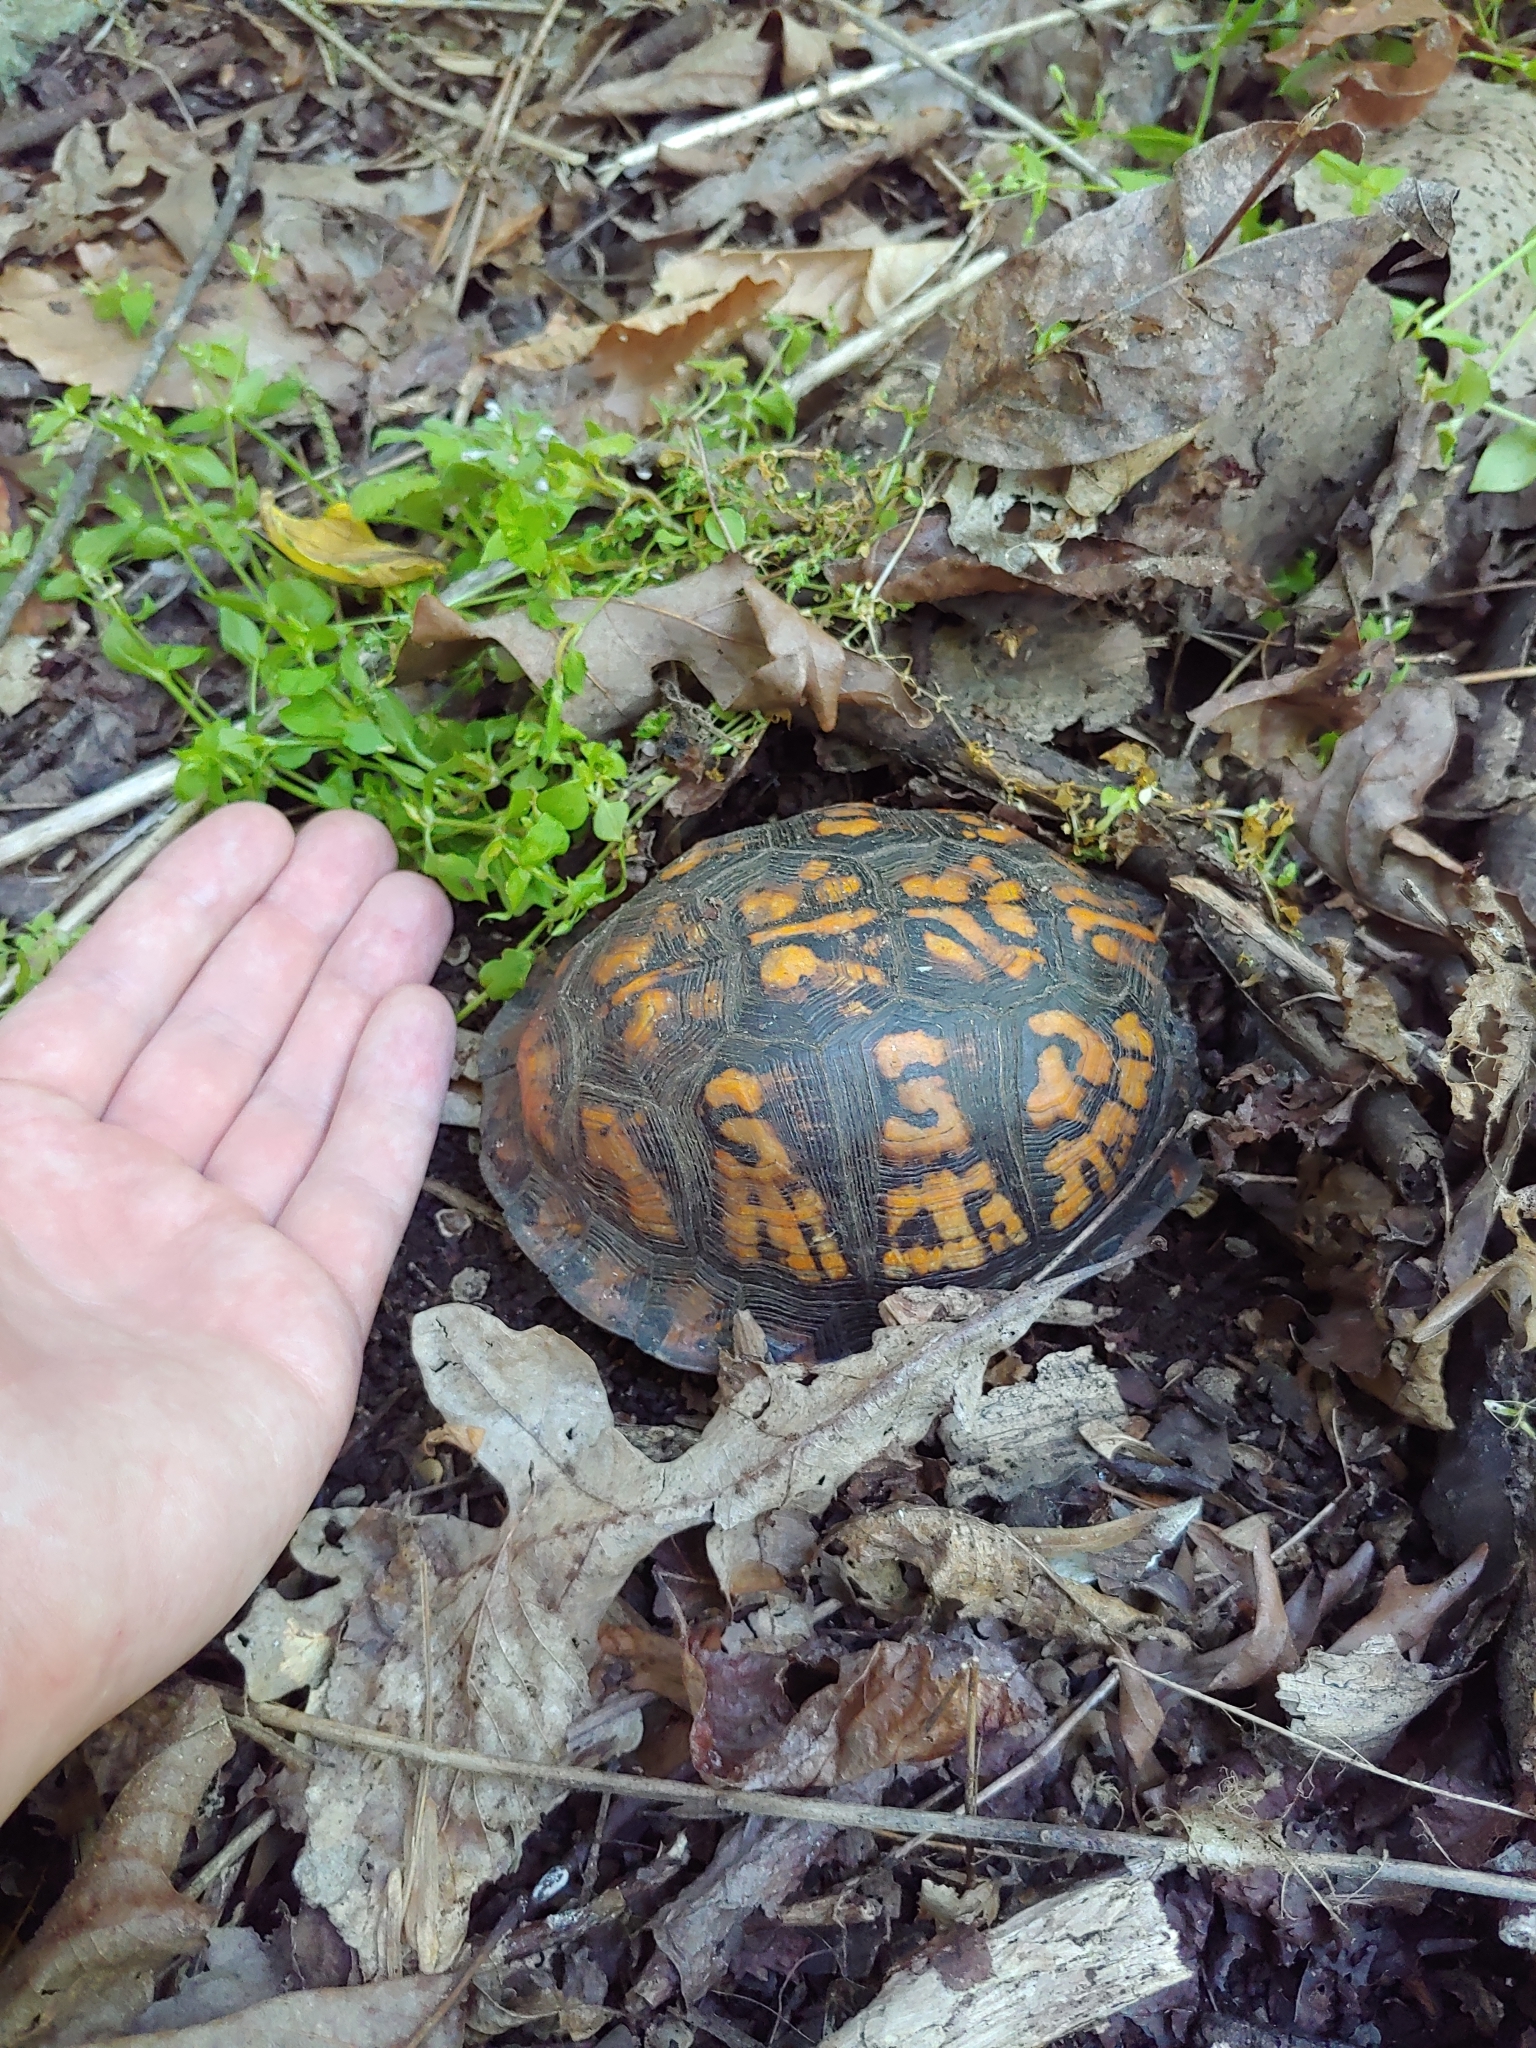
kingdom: Animalia
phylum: Chordata
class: Testudines
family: Emydidae
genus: Terrapene
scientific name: Terrapene carolina
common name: Common box turtle
